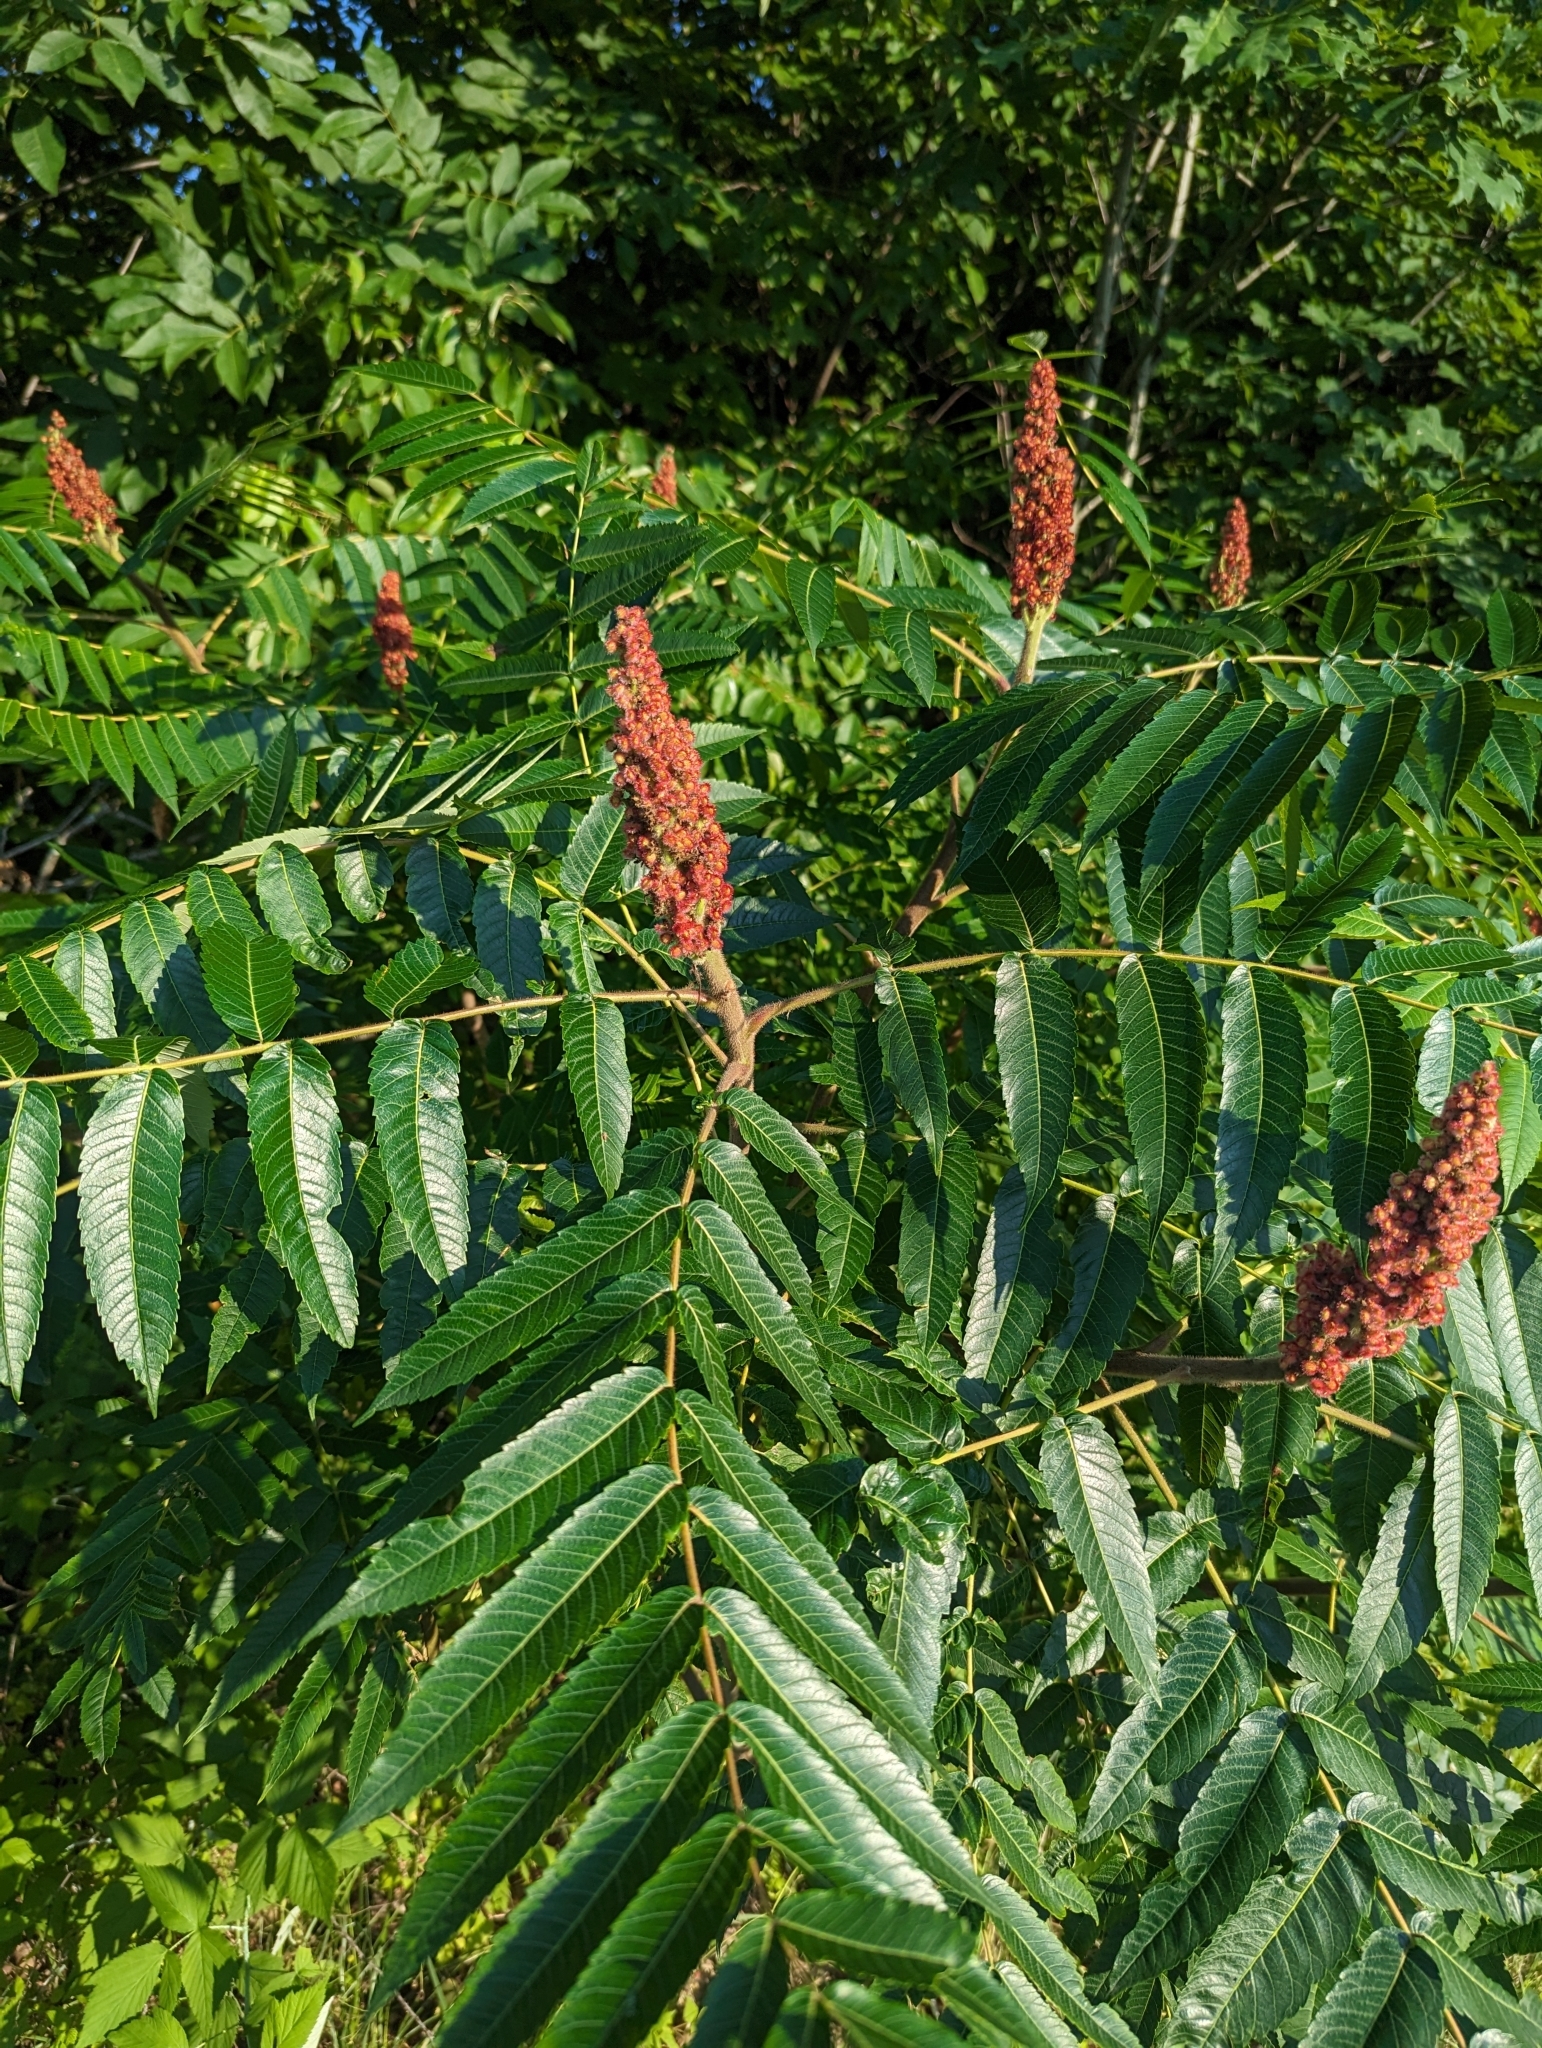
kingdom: Plantae
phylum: Tracheophyta
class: Magnoliopsida
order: Sapindales
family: Anacardiaceae
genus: Rhus
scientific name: Rhus typhina
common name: Staghorn sumac
